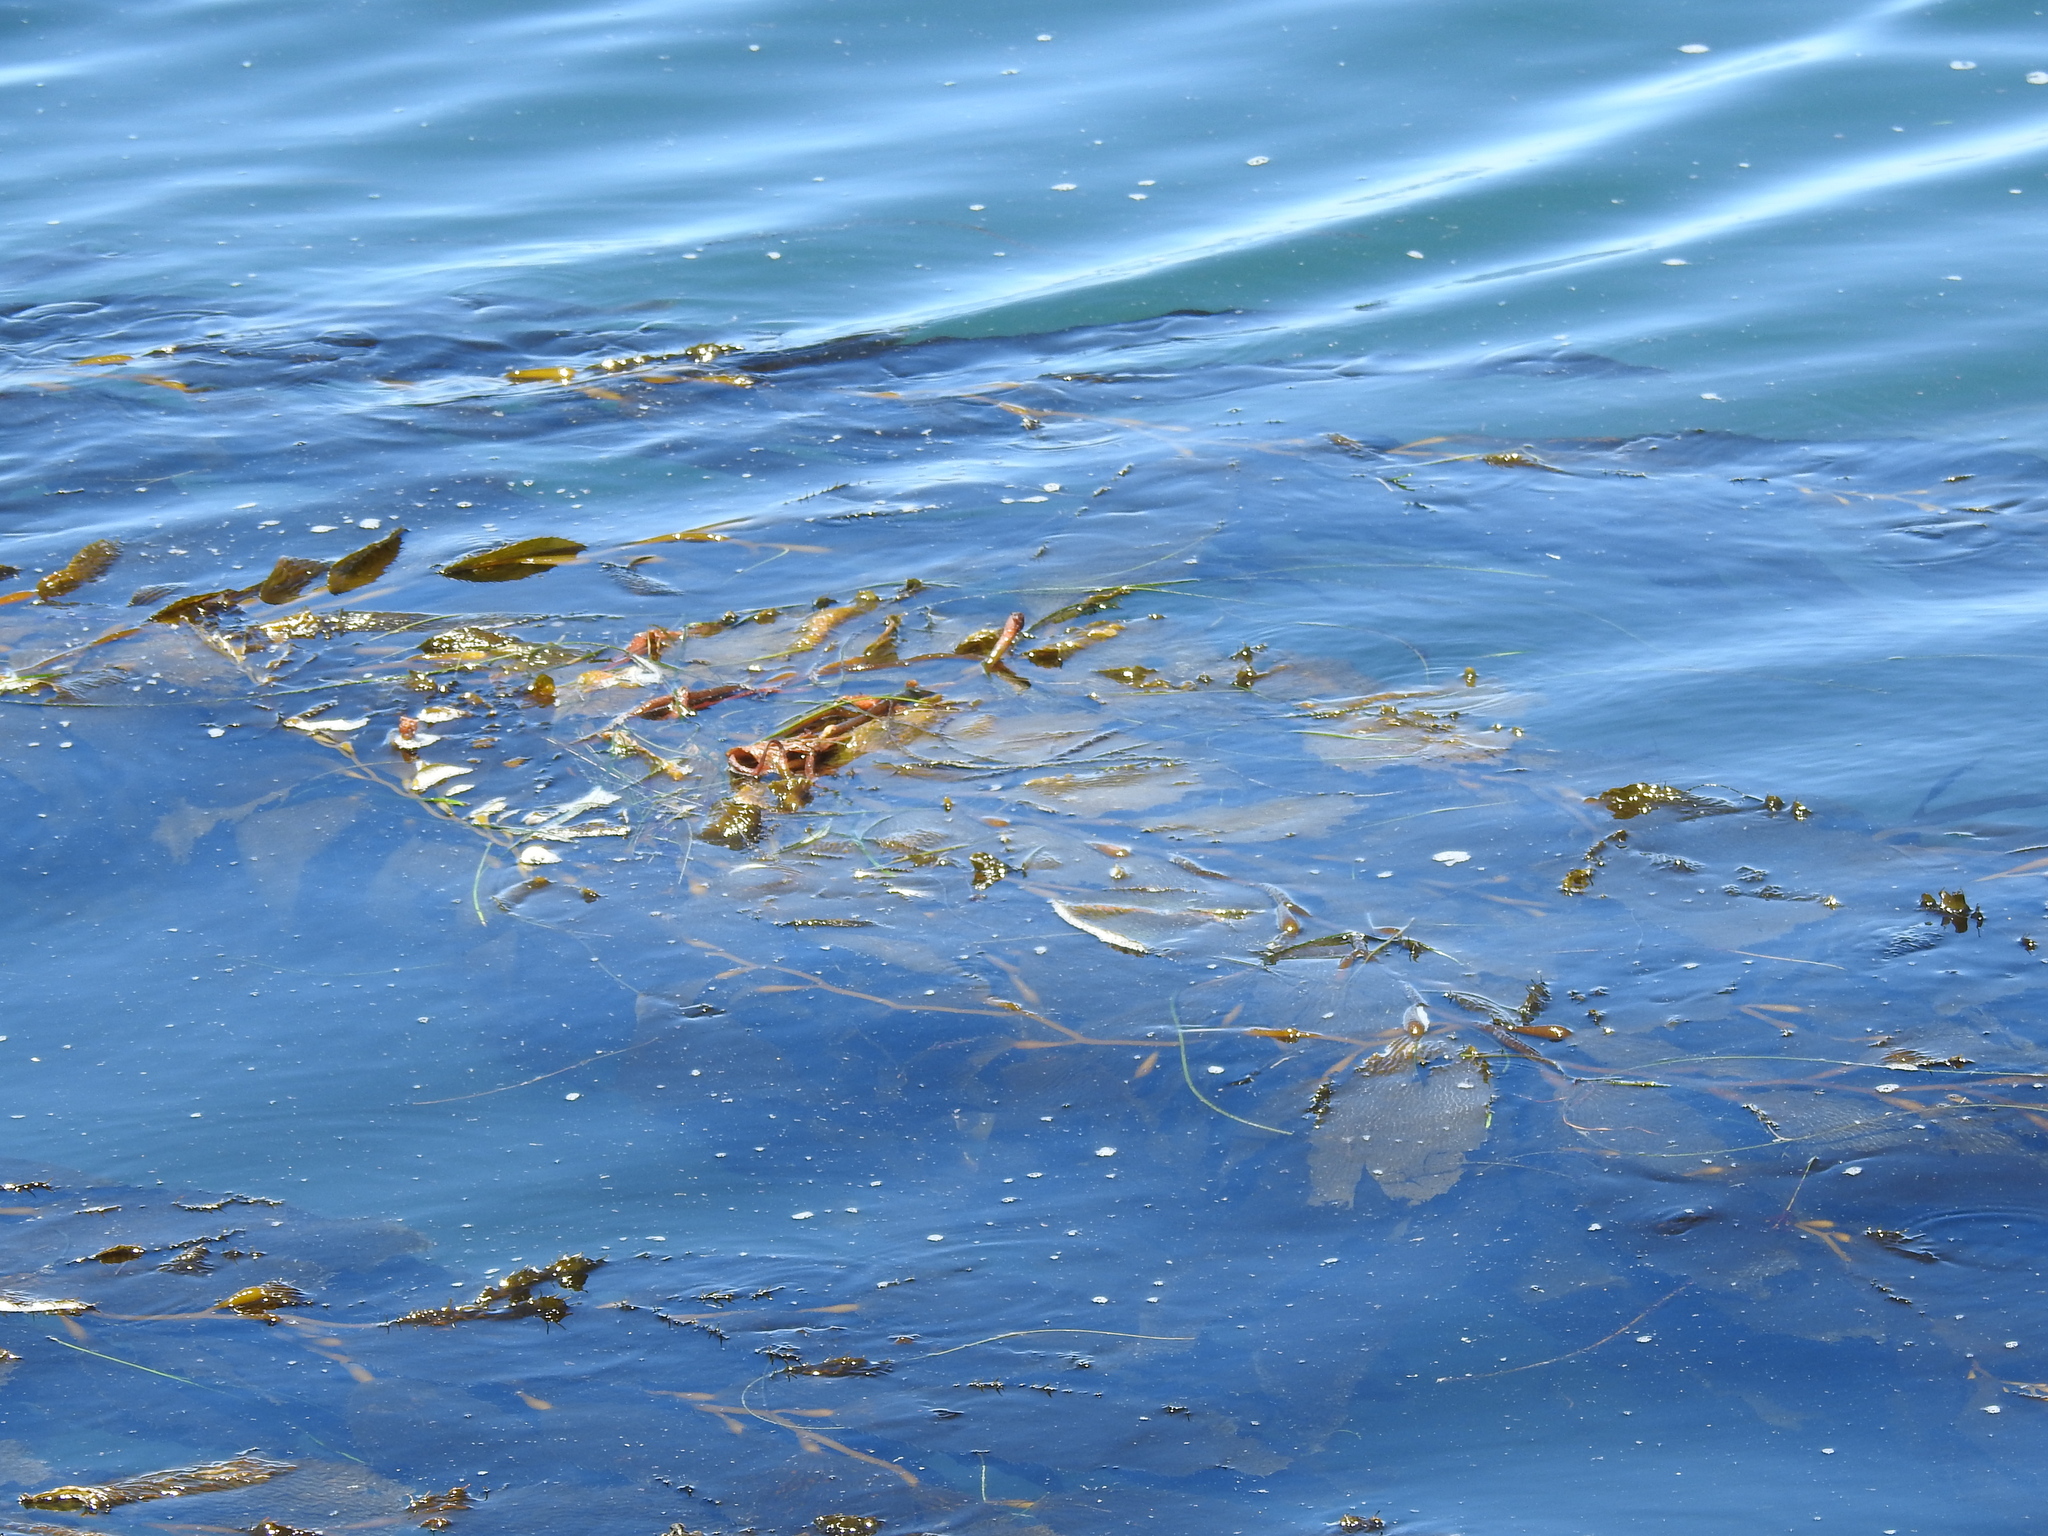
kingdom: Chromista
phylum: Ochrophyta
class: Phaeophyceae
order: Laminariales
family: Laminariaceae
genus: Macrocystis
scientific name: Macrocystis pyrifera
